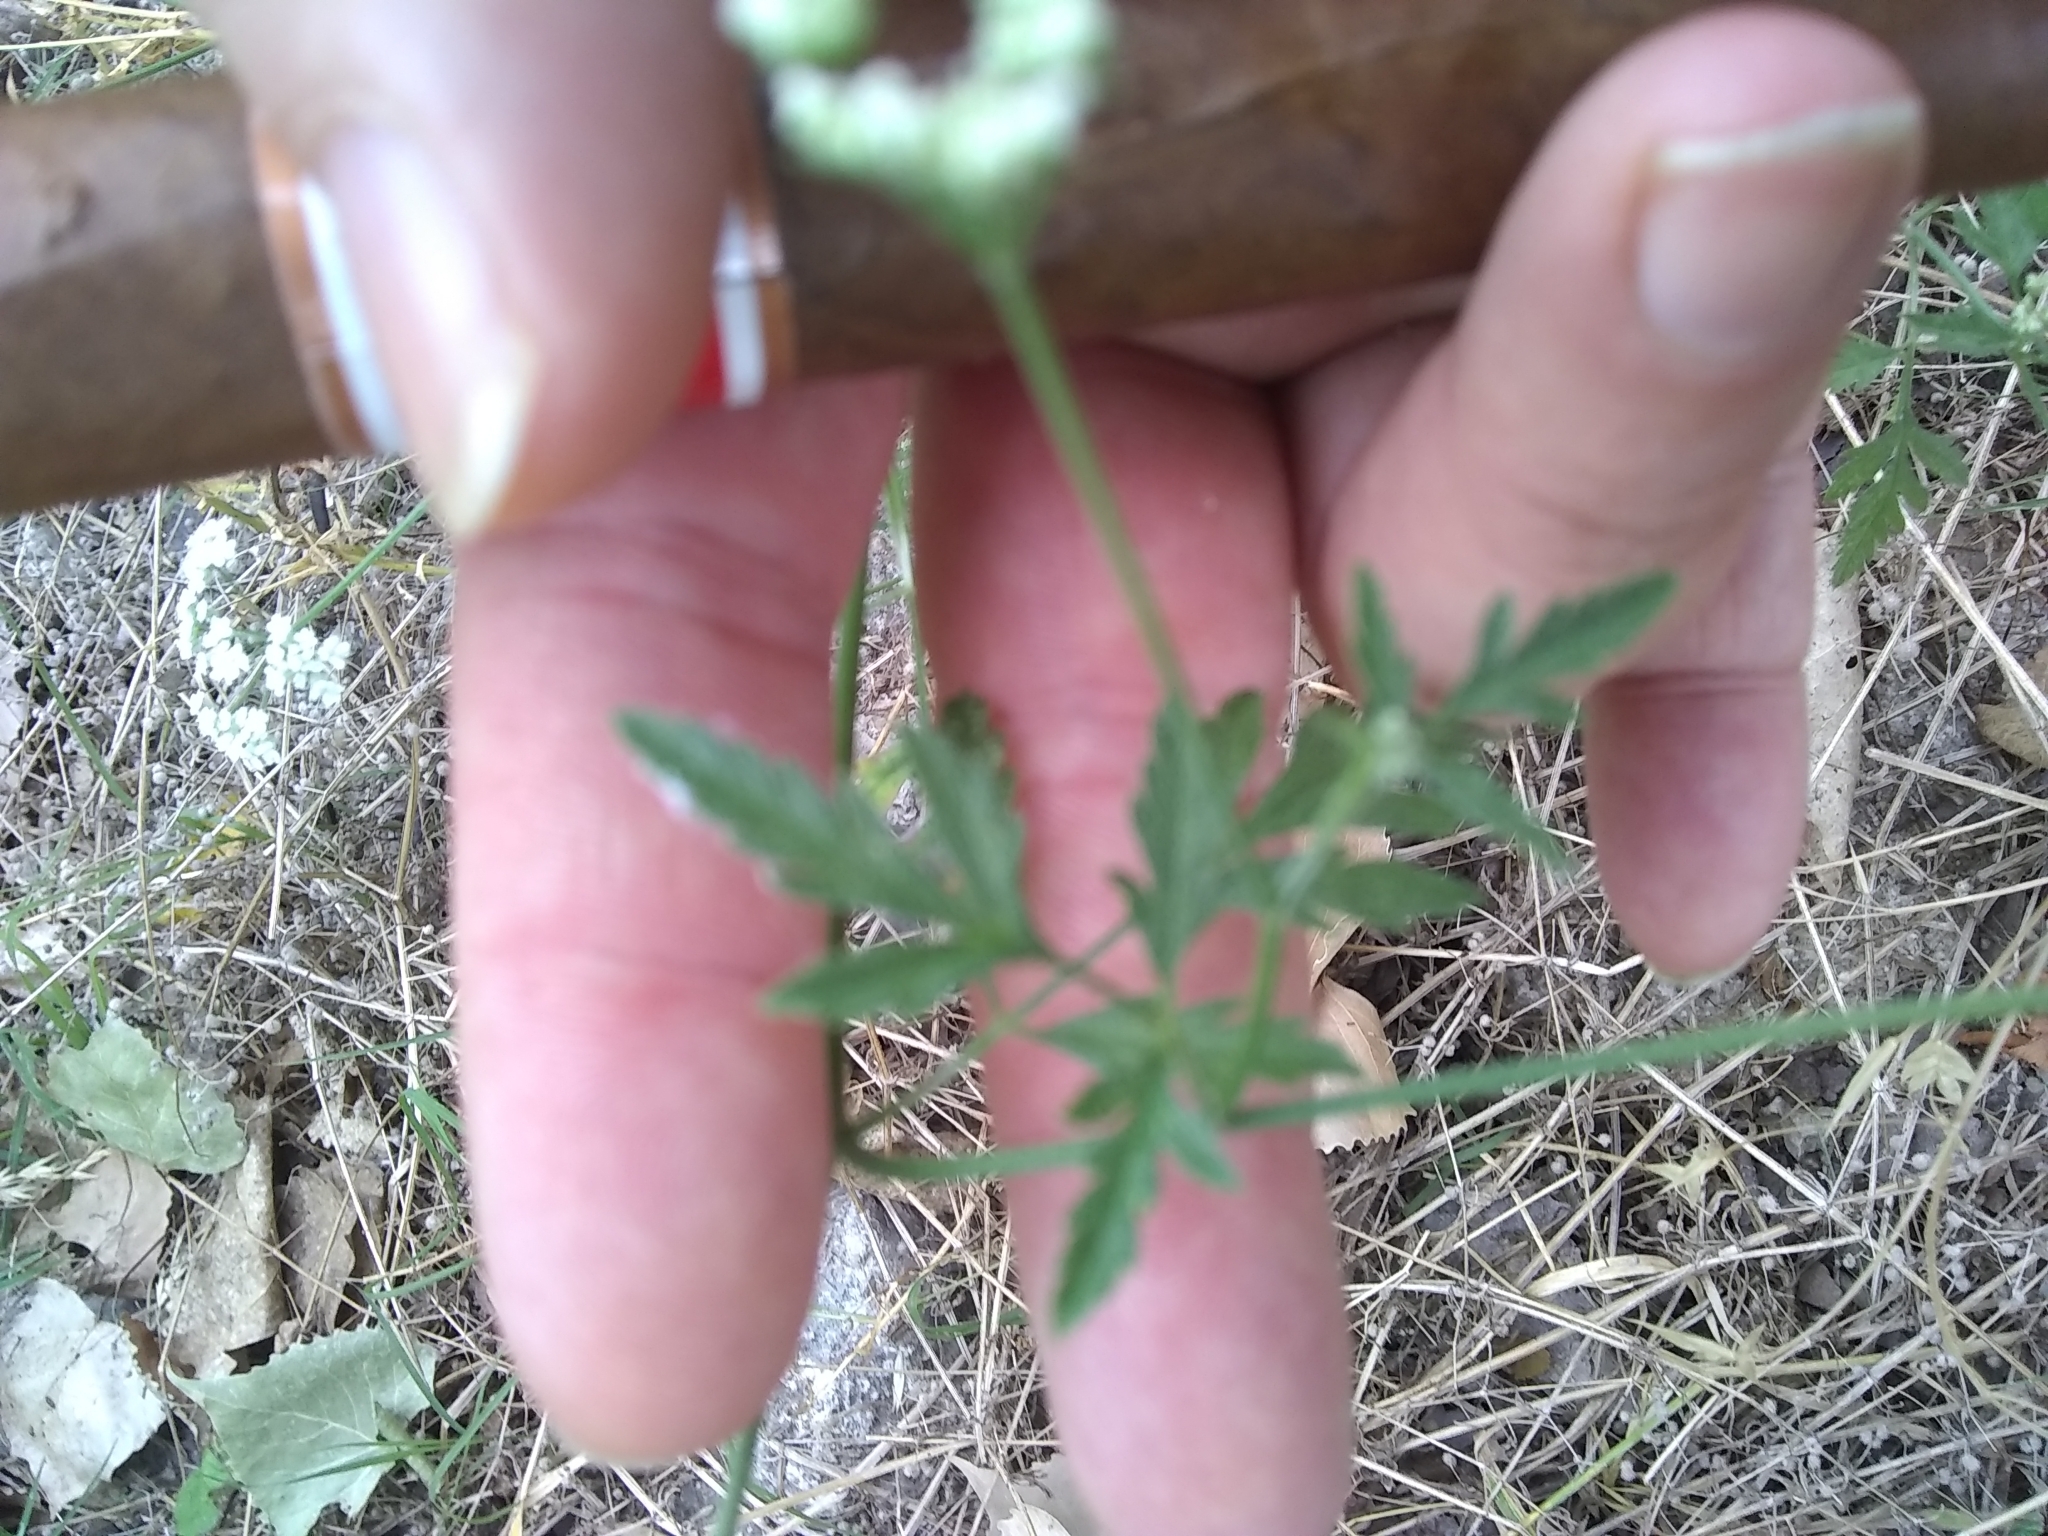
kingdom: Plantae
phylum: Tracheophyta
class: Magnoliopsida
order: Apiales
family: Apiaceae
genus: Torilis
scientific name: Torilis arvensis
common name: Spreading hedge-parsley
